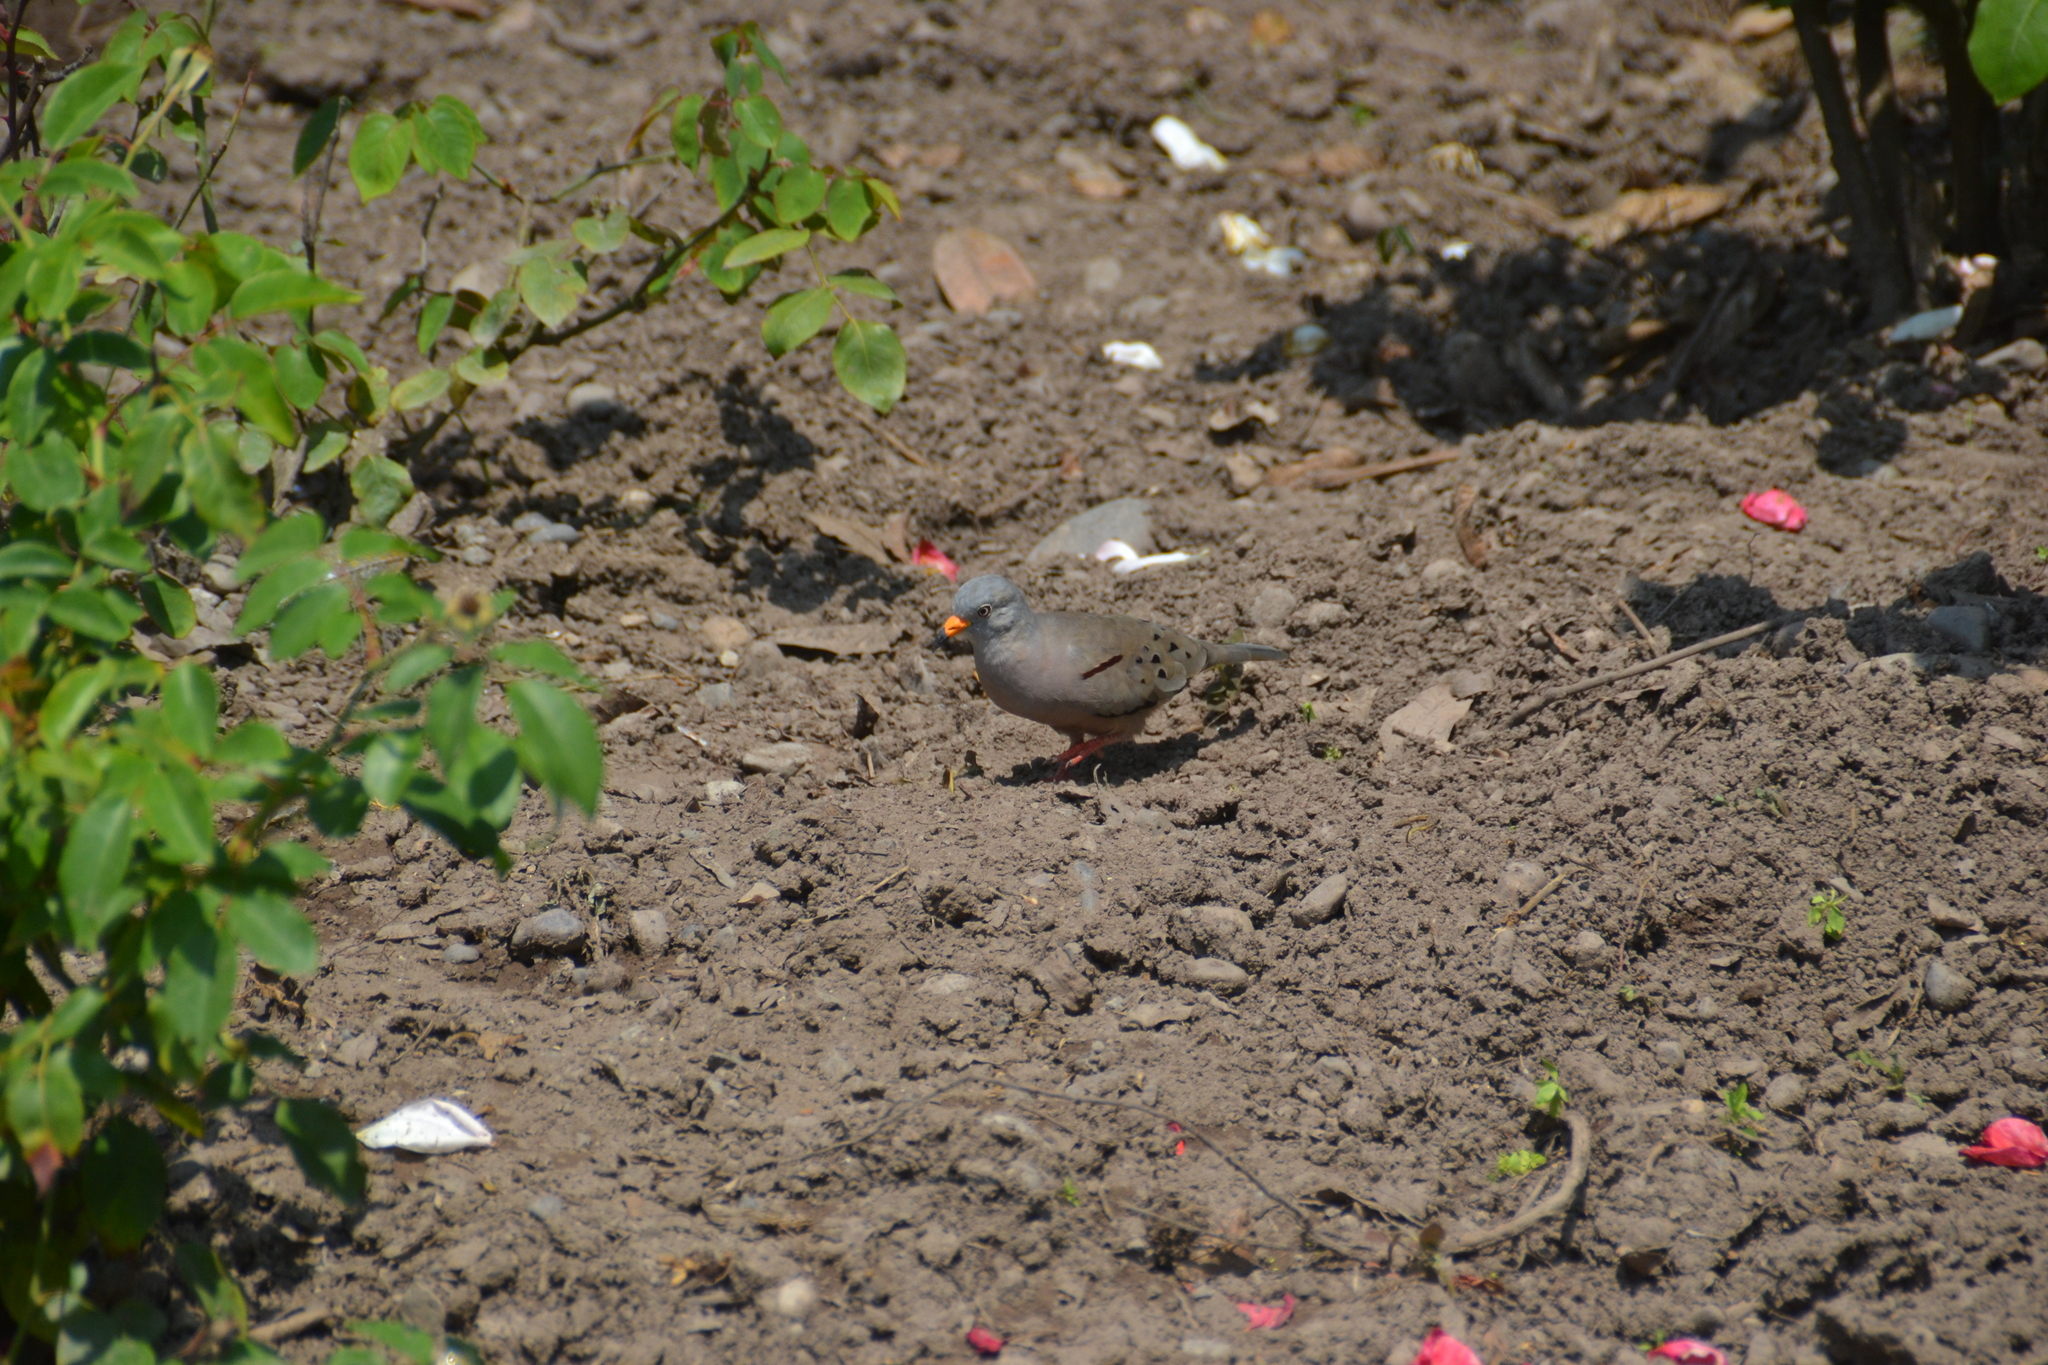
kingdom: Animalia
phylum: Chordata
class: Aves
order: Columbiformes
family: Columbidae
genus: Columbina
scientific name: Columbina cruziana
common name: Croaking ground dove
